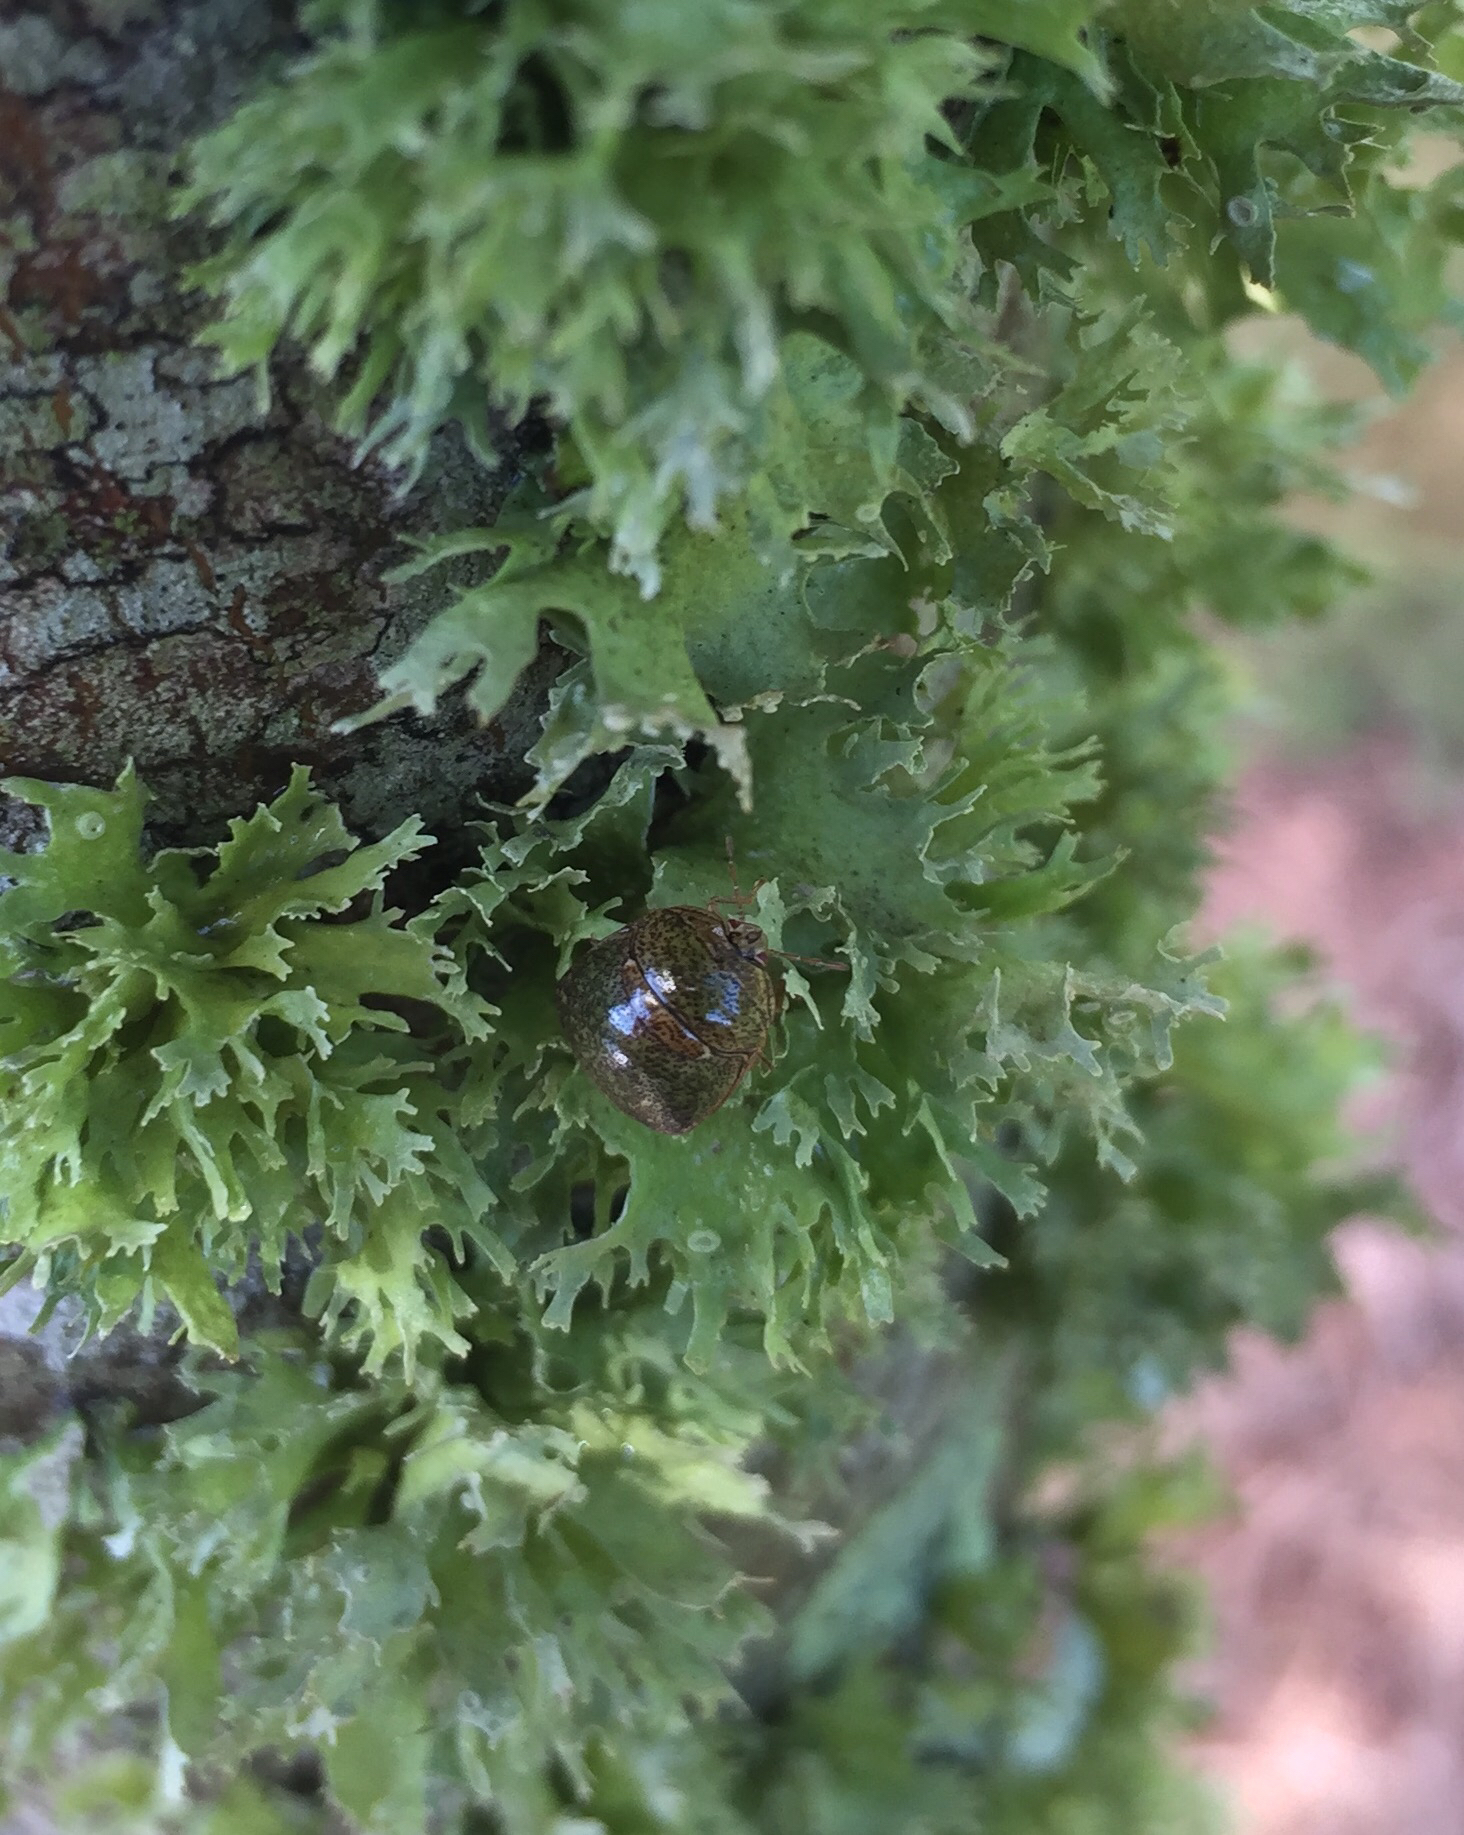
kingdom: Animalia
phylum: Arthropoda
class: Insecta
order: Hemiptera
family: Plataspidae
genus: Megacopta
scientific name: Megacopta cribraria
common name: Bean plataspid
